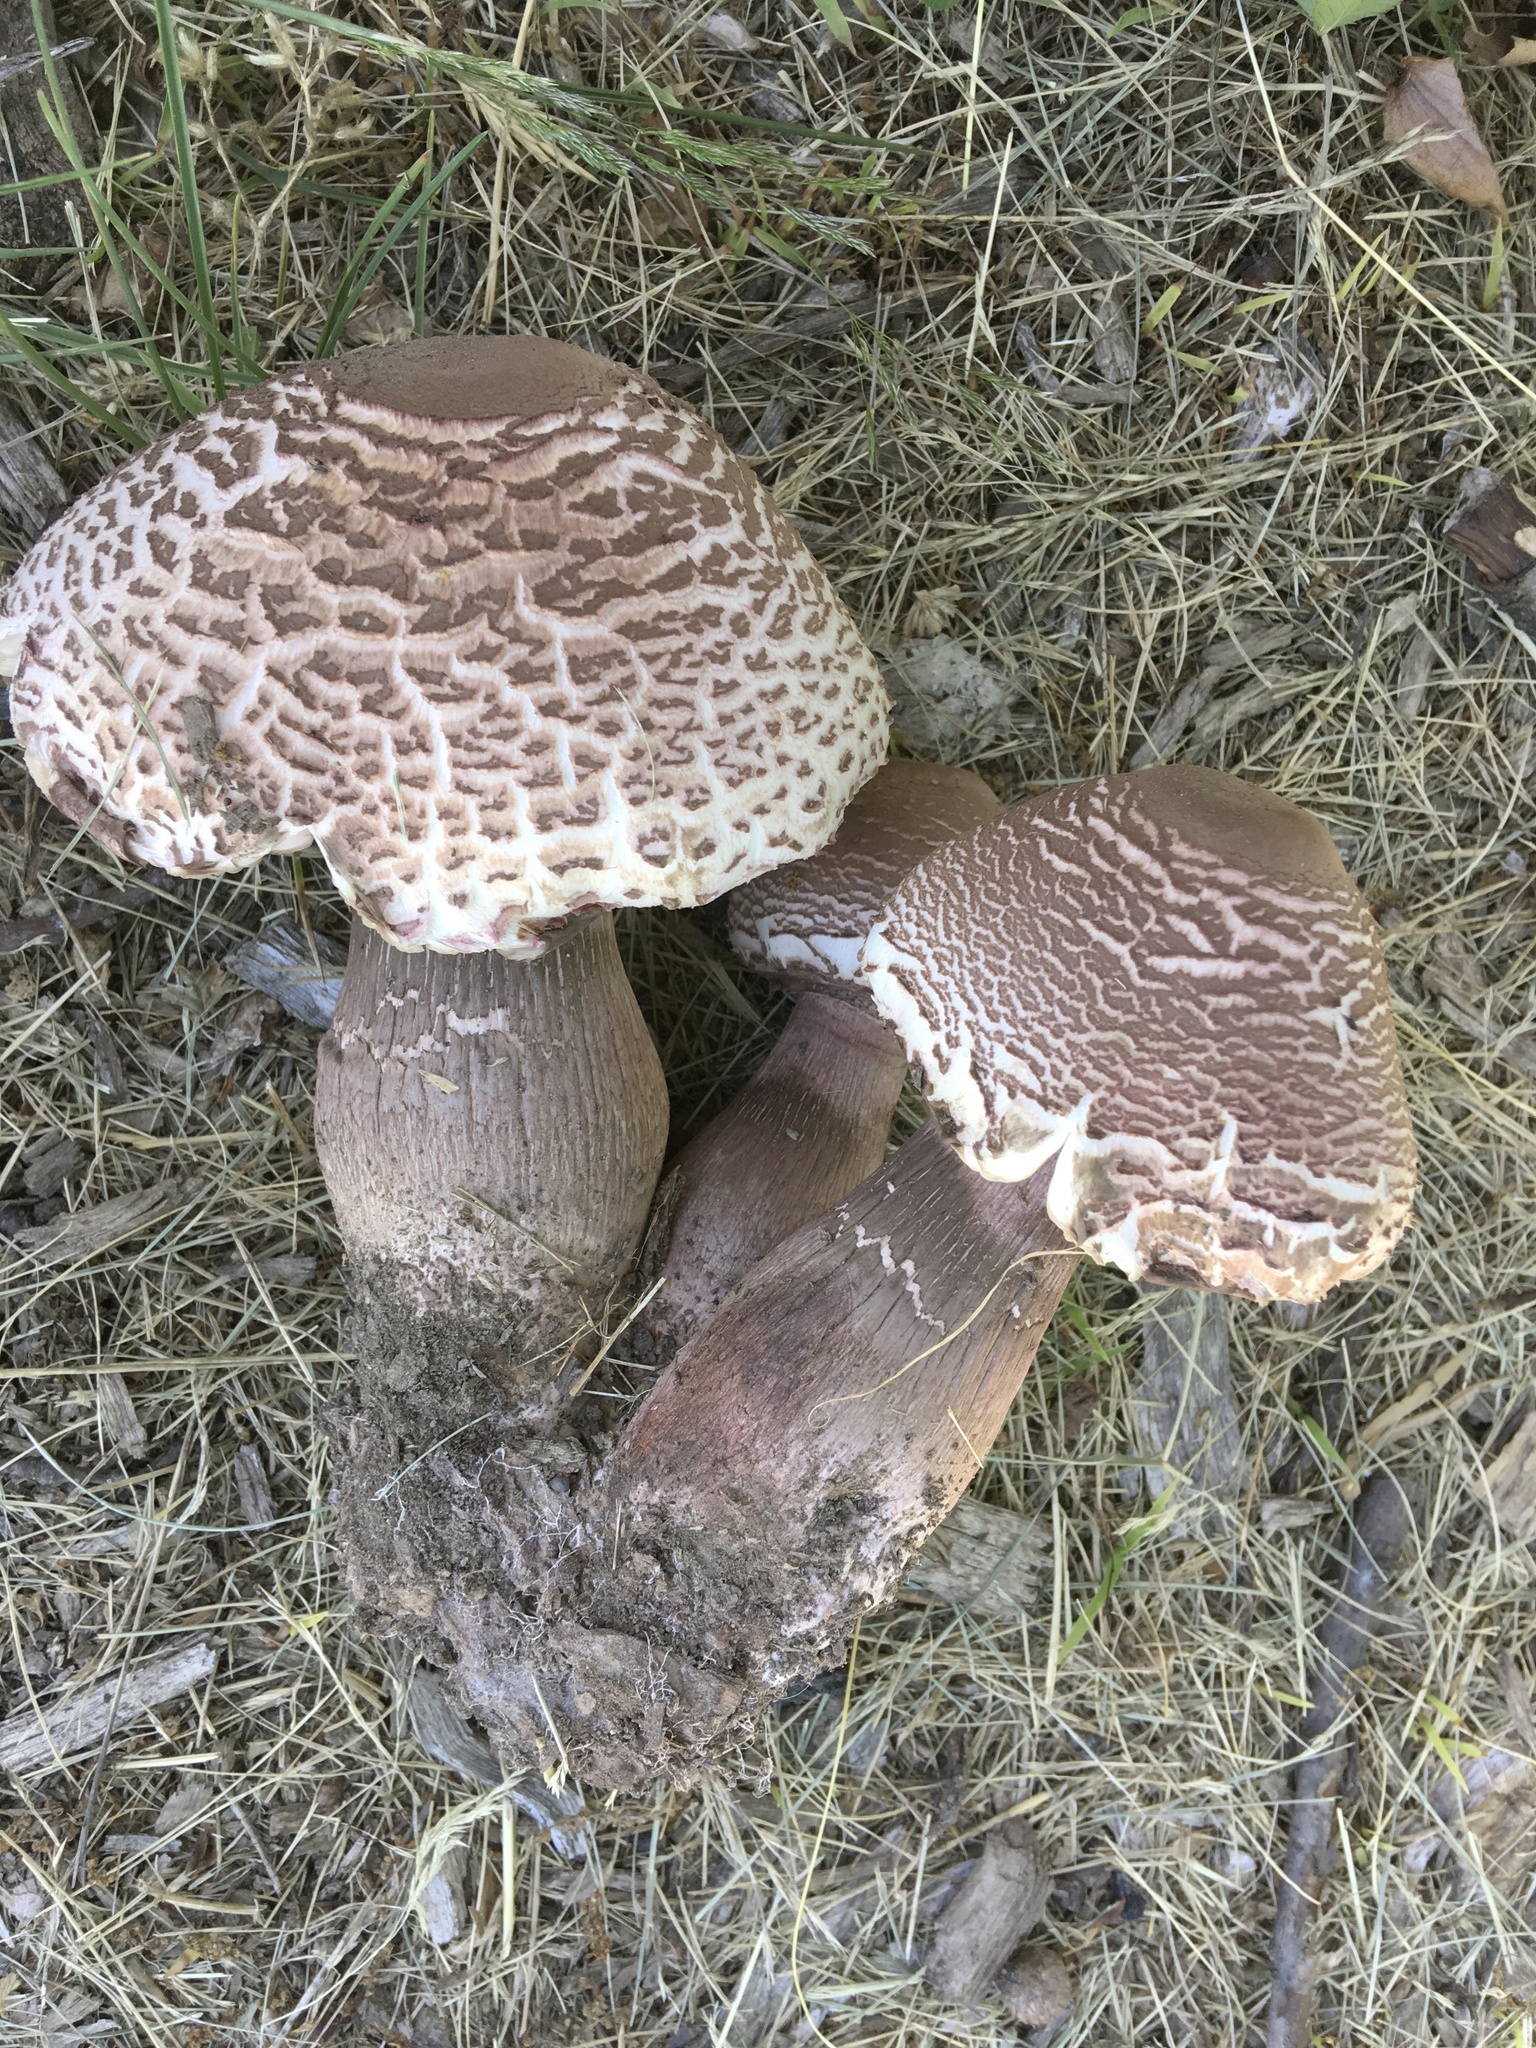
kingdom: Fungi
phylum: Basidiomycota
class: Agaricomycetes
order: Agaricales
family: Agaricaceae
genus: Leucoagaricus
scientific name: Leucoagaricus americanus
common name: Reddening lepiota
